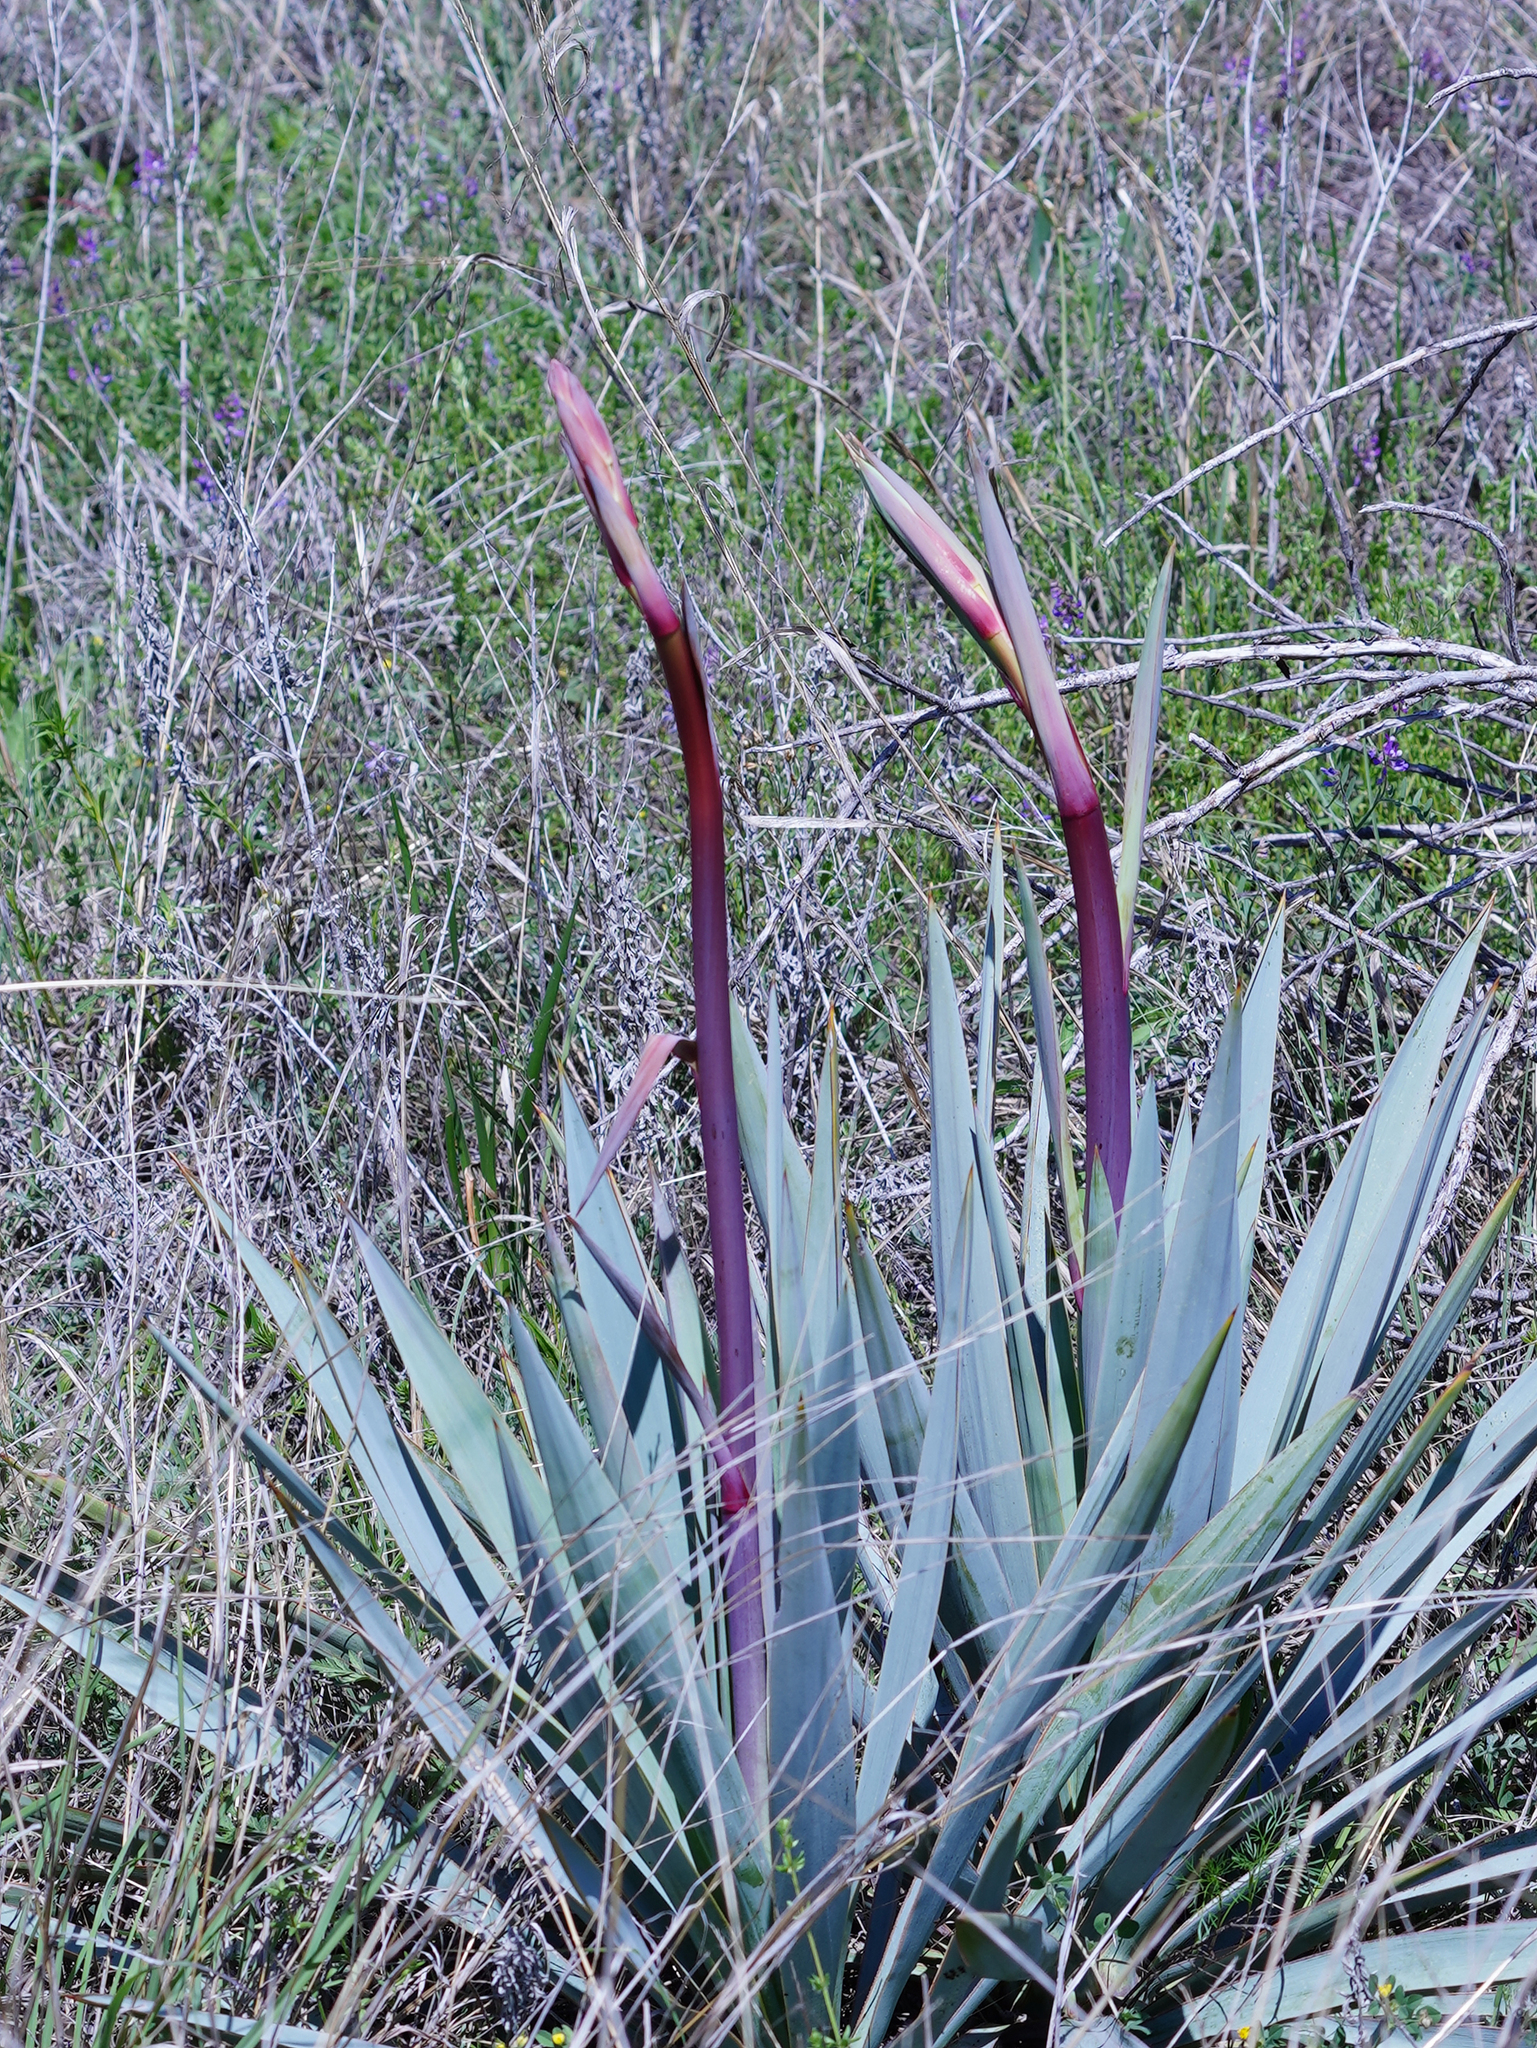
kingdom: Plantae
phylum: Tracheophyta
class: Liliopsida
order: Asparagales
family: Asparagaceae
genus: Yucca
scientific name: Yucca pallida
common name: Pale leaf yucca
